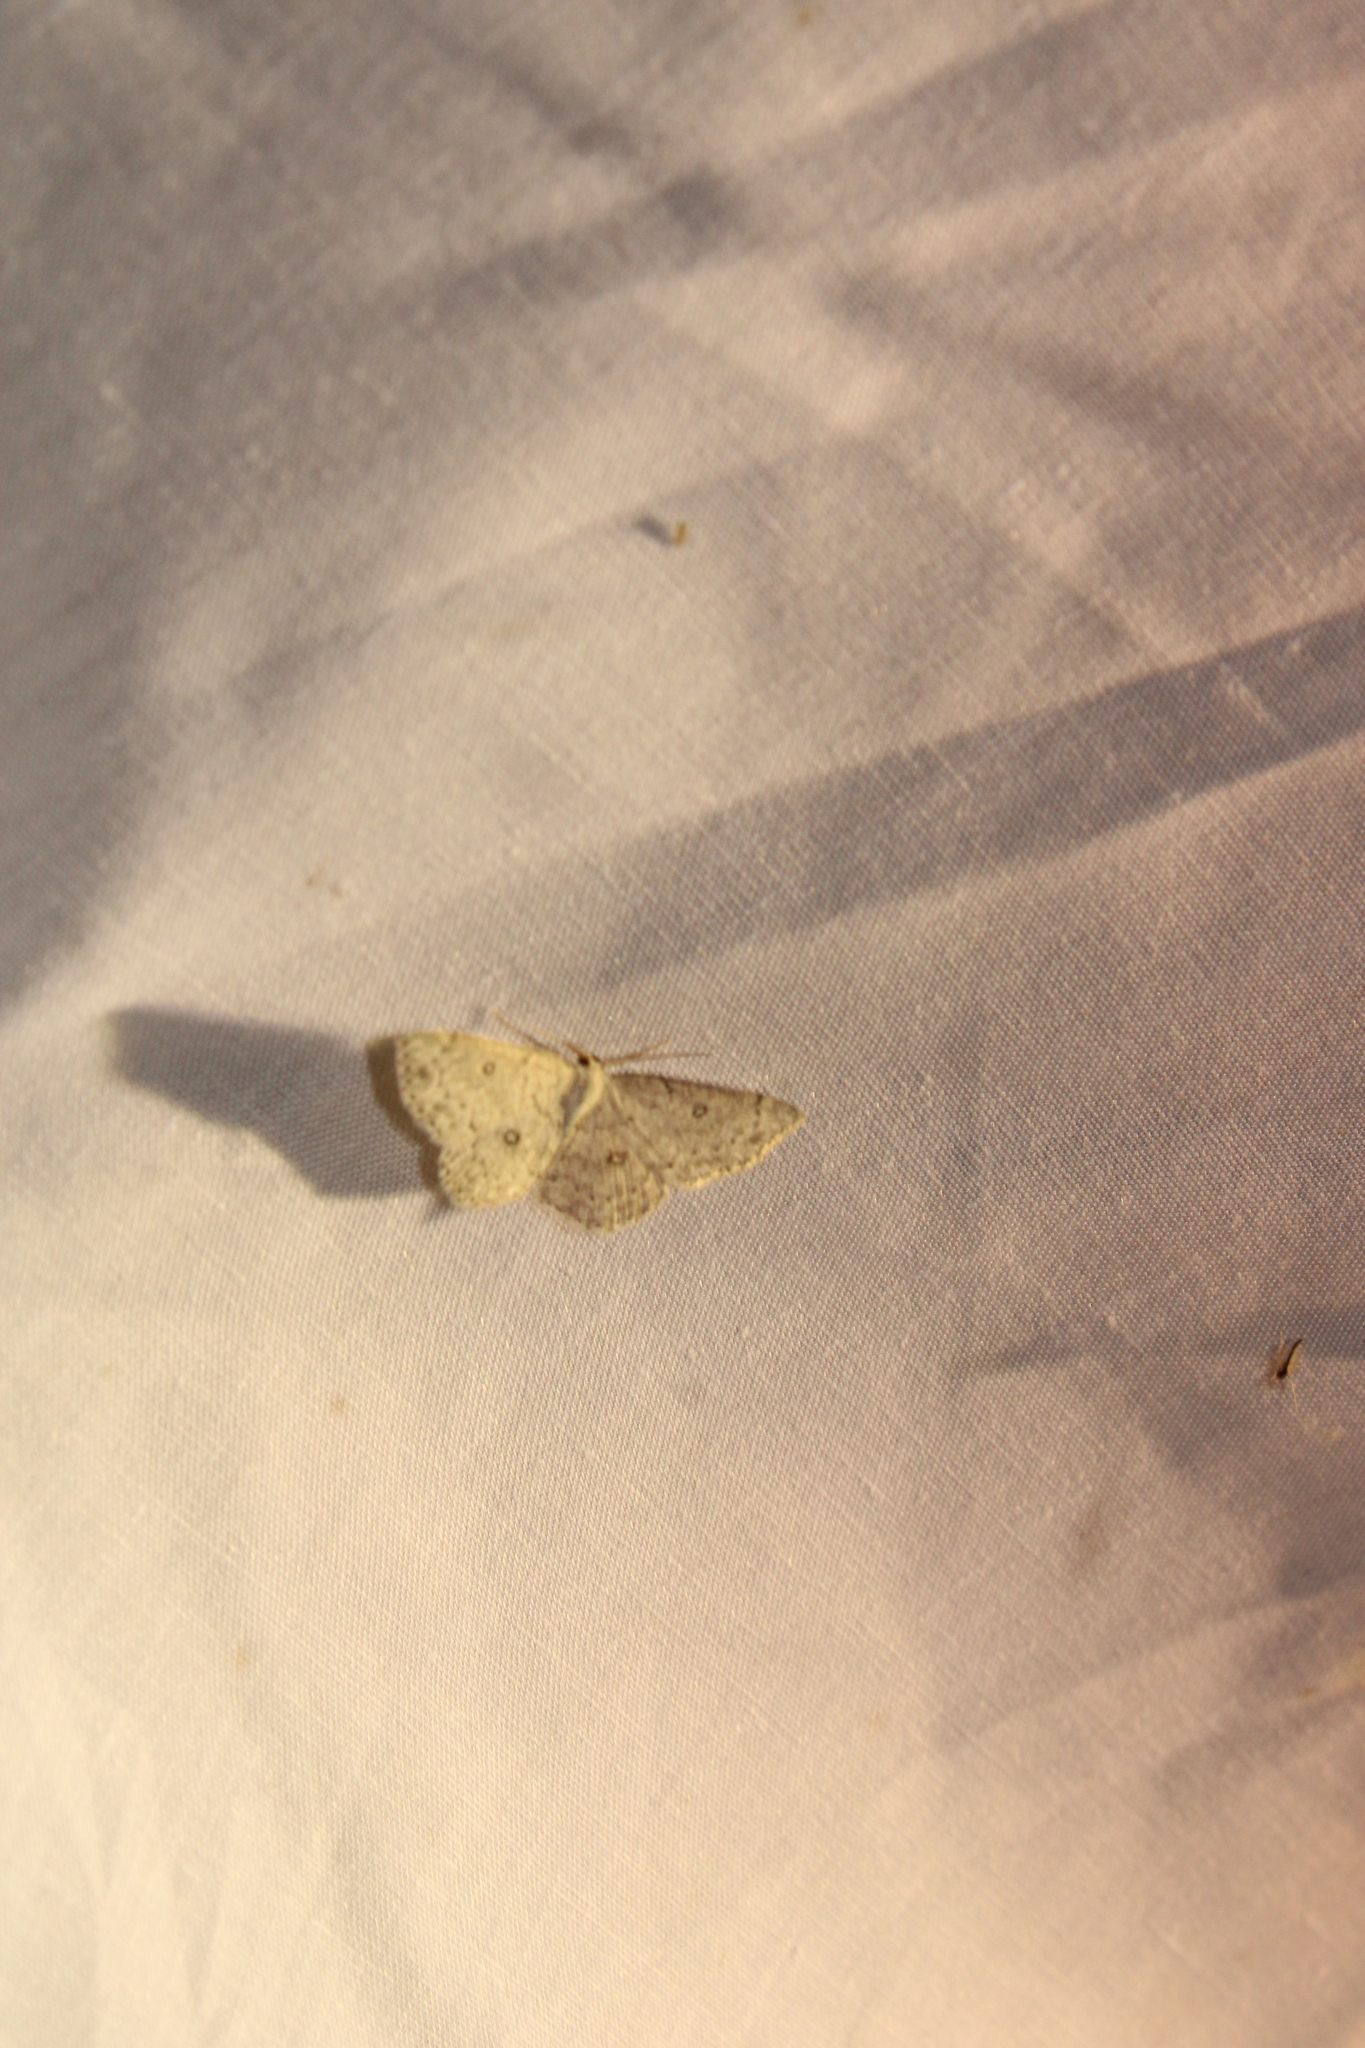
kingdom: Animalia
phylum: Arthropoda
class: Insecta
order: Lepidoptera
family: Geometridae
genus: Cyclophora
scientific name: Cyclophora pendulinaria
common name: Sweet fern geometer
